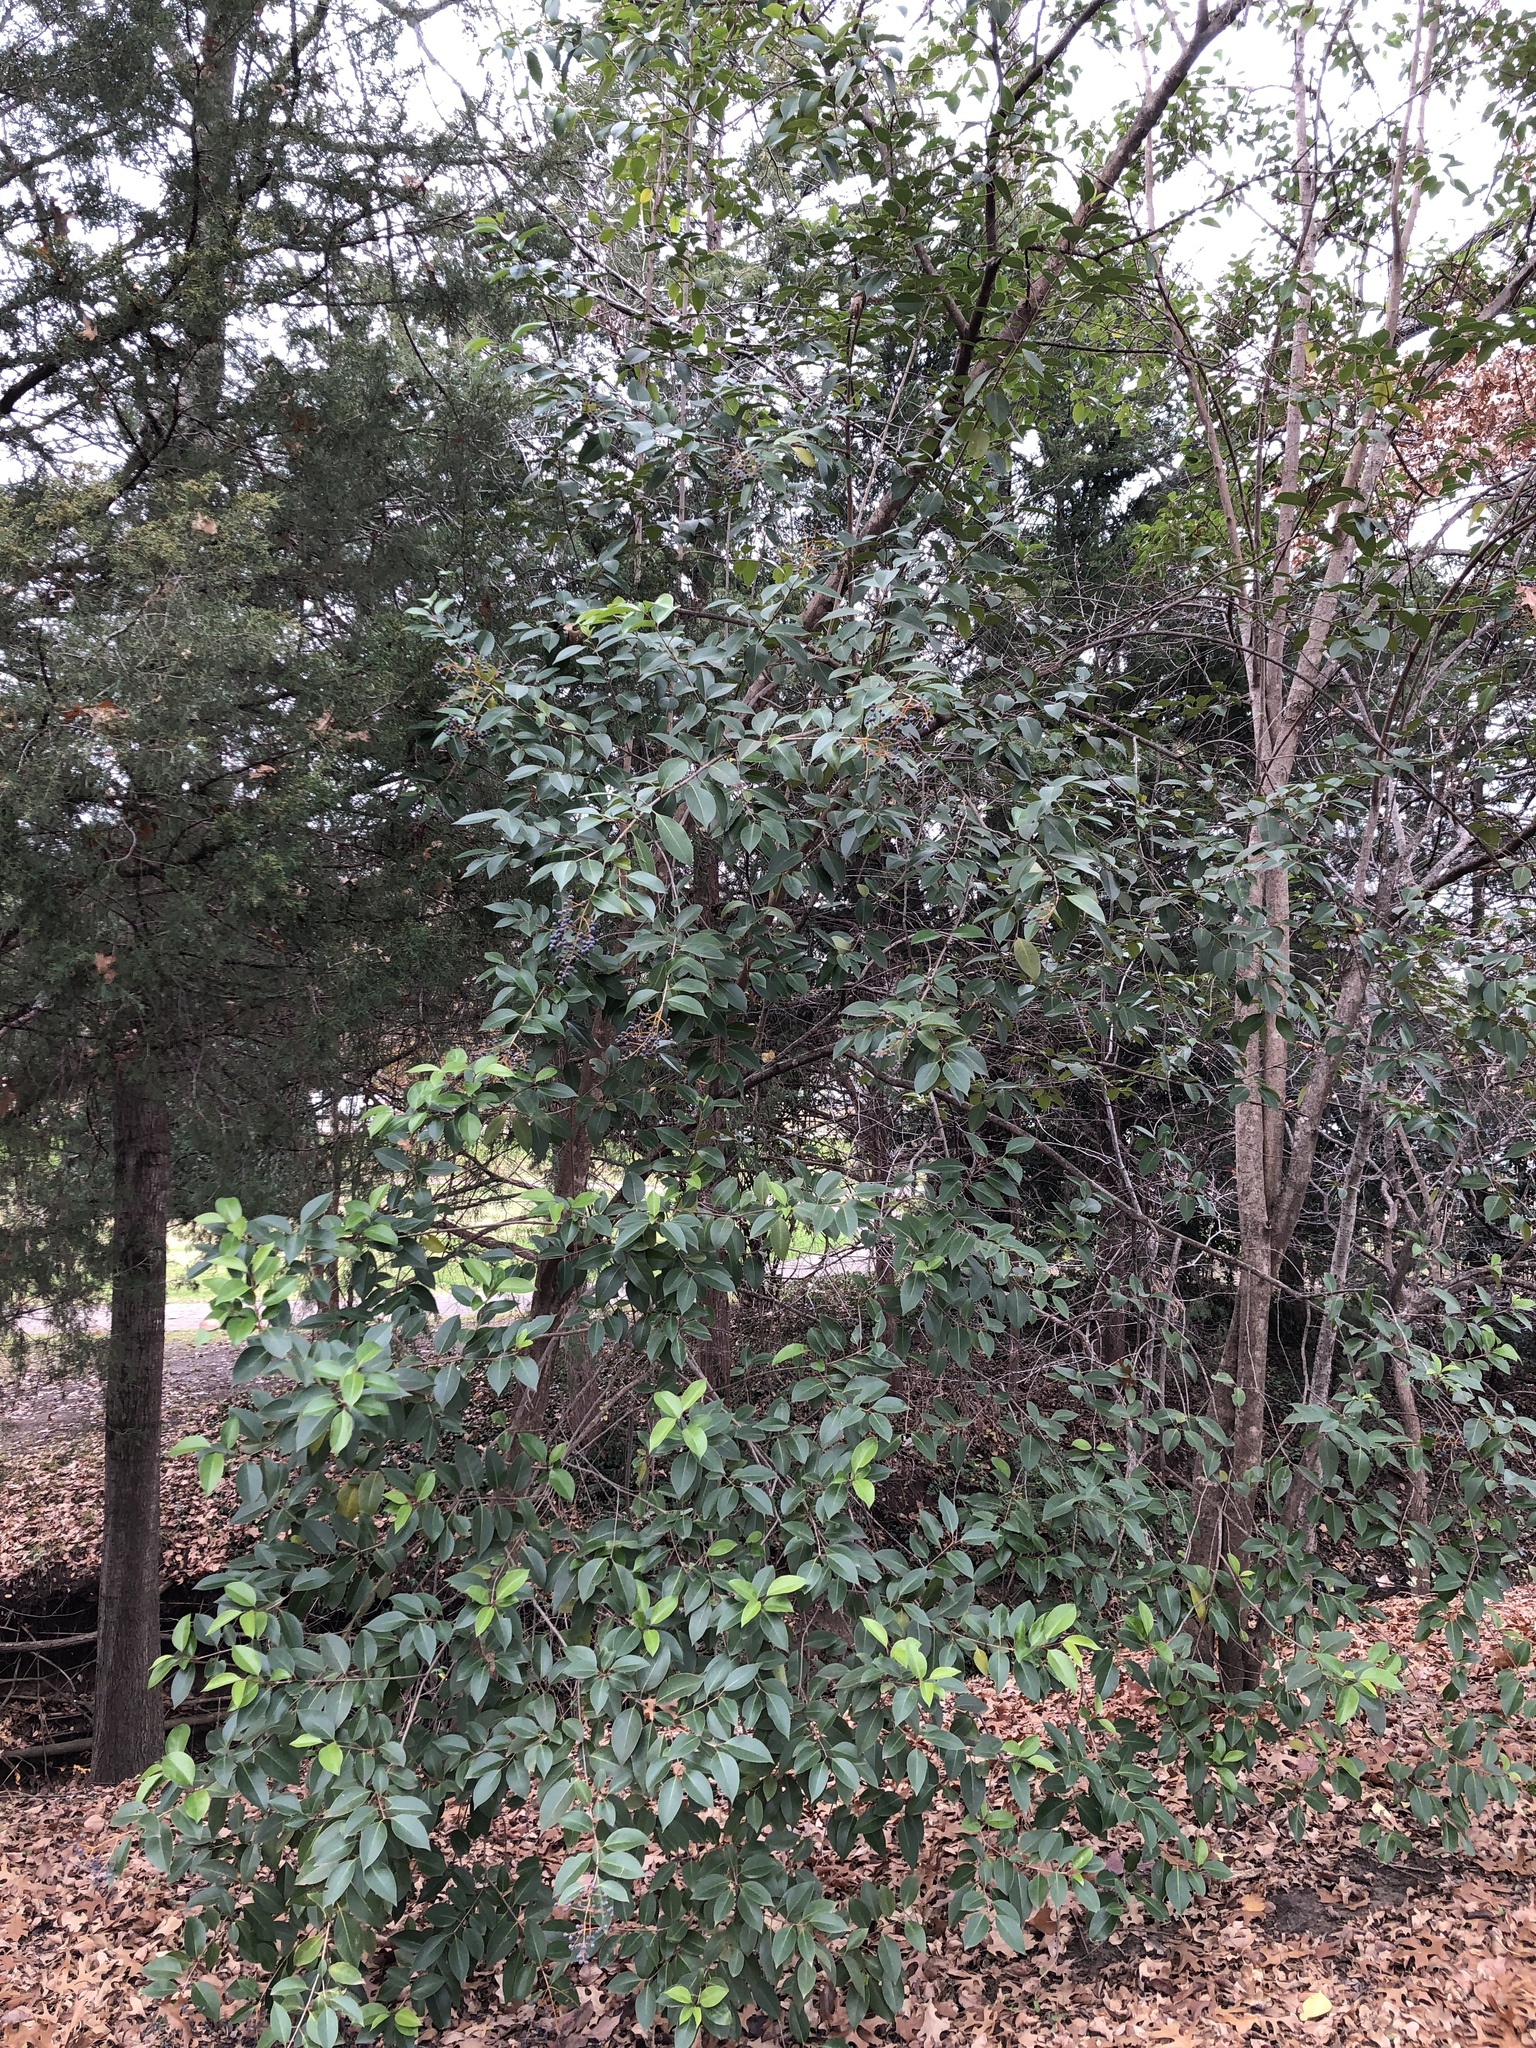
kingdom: Plantae
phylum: Tracheophyta
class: Magnoliopsida
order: Lamiales
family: Oleaceae
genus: Ligustrum
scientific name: Ligustrum lucidum
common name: Glossy privet
